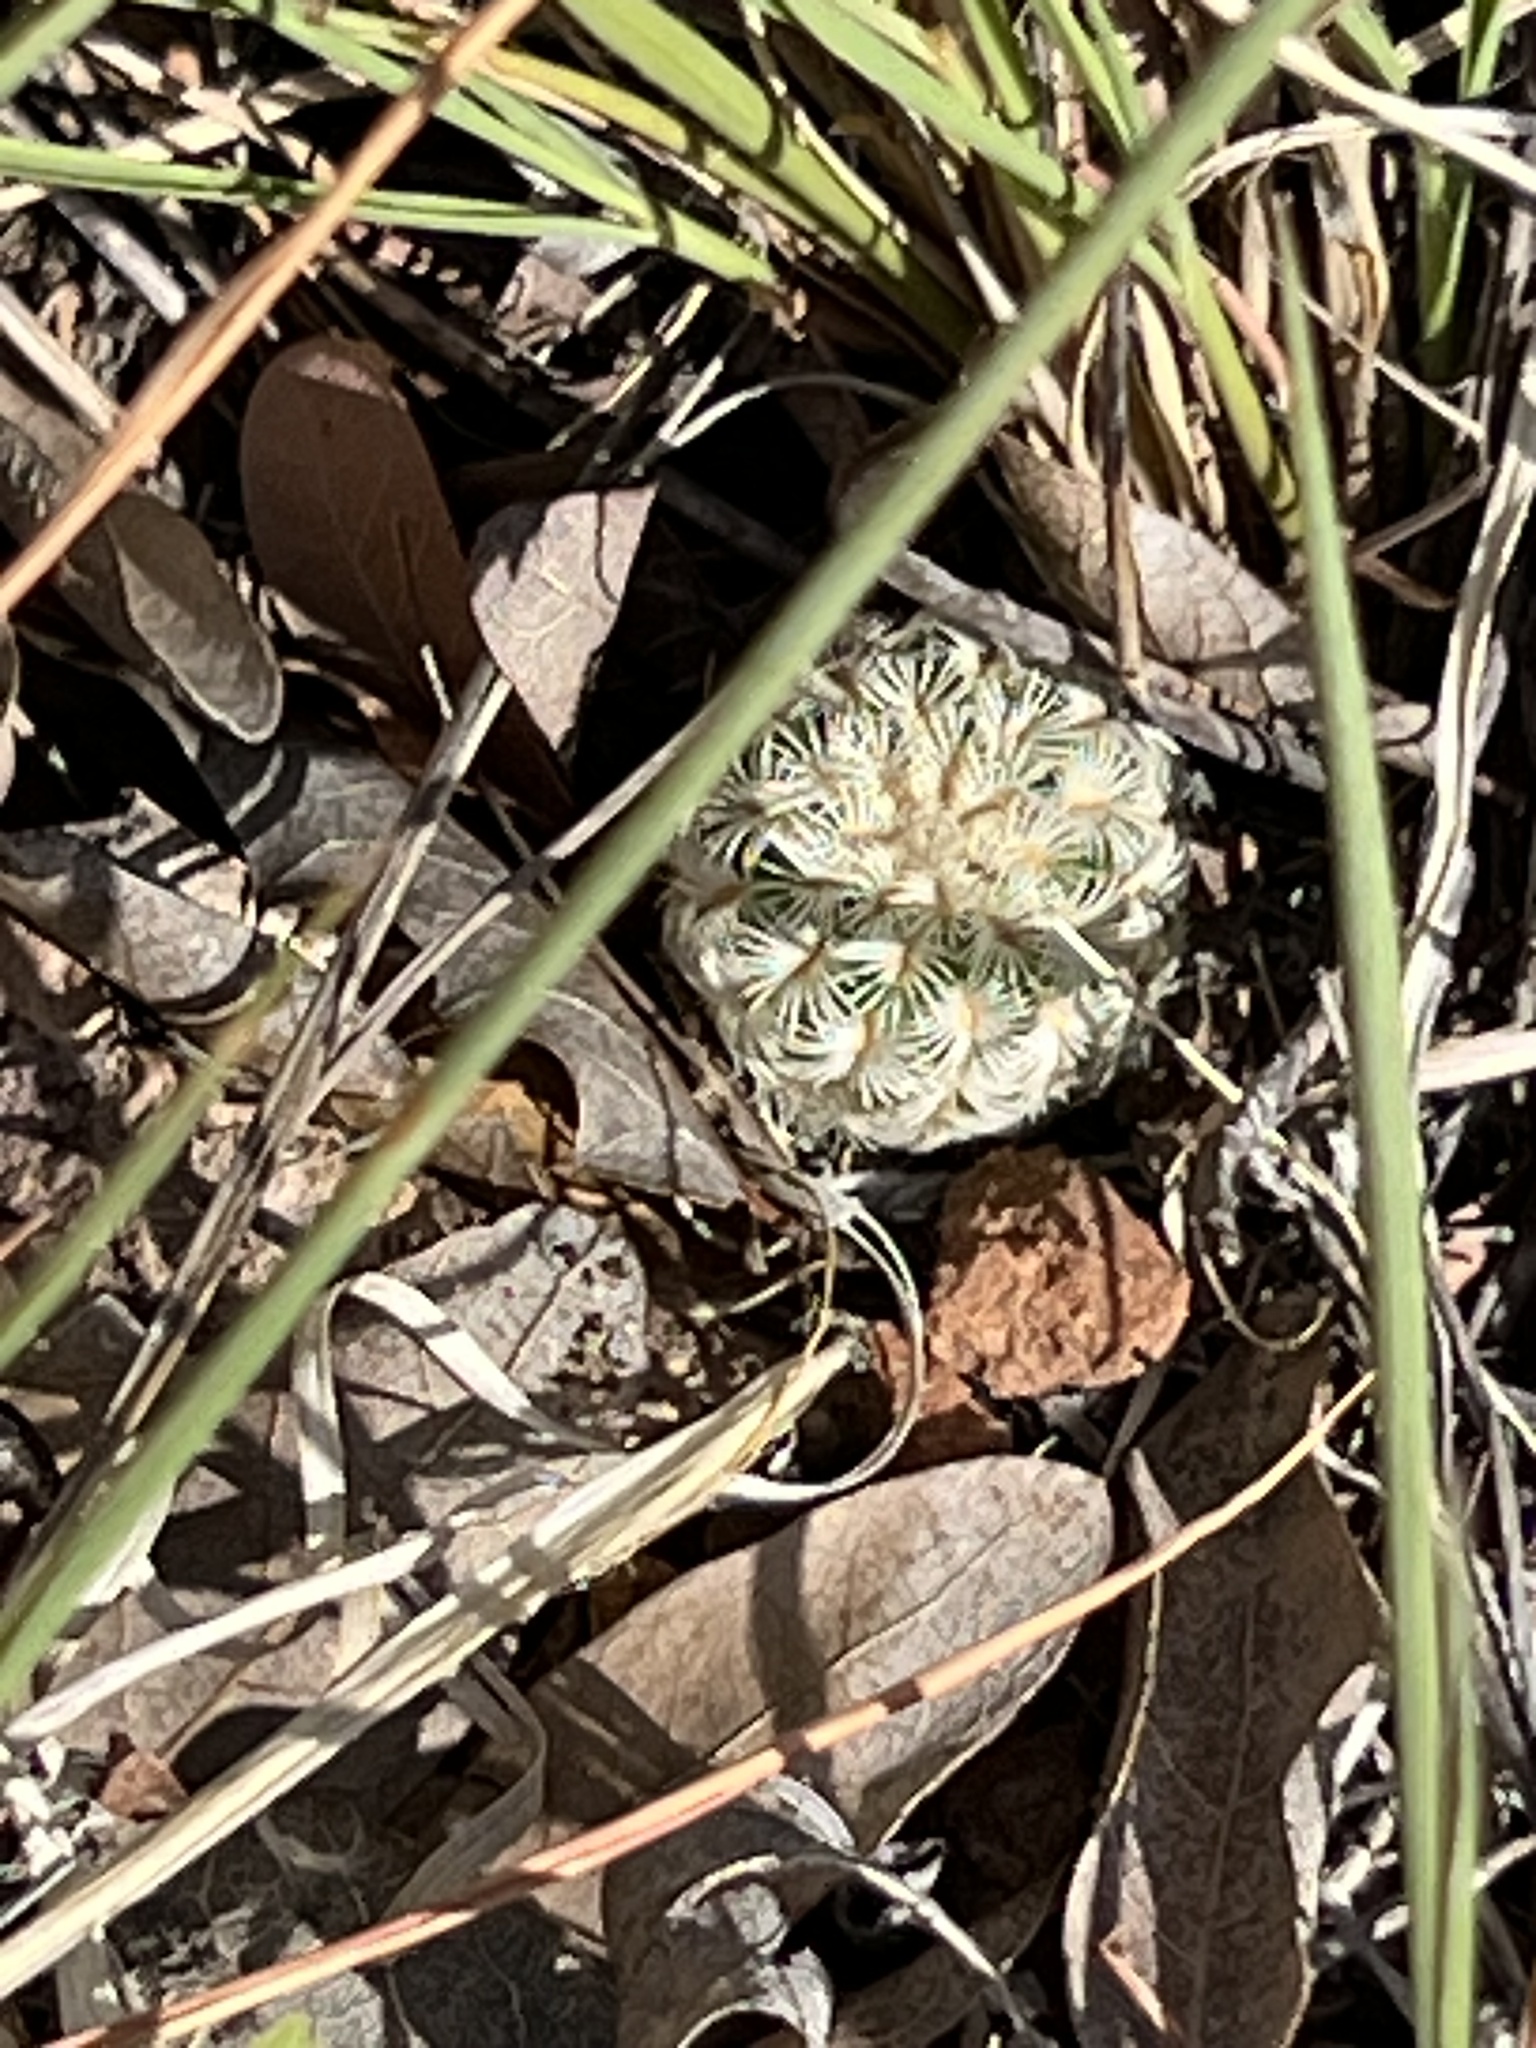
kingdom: Plantae
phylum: Tracheophyta
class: Magnoliopsida
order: Caryophyllales
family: Cactaceae
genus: Echinocereus
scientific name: Echinocereus rigidissimus
